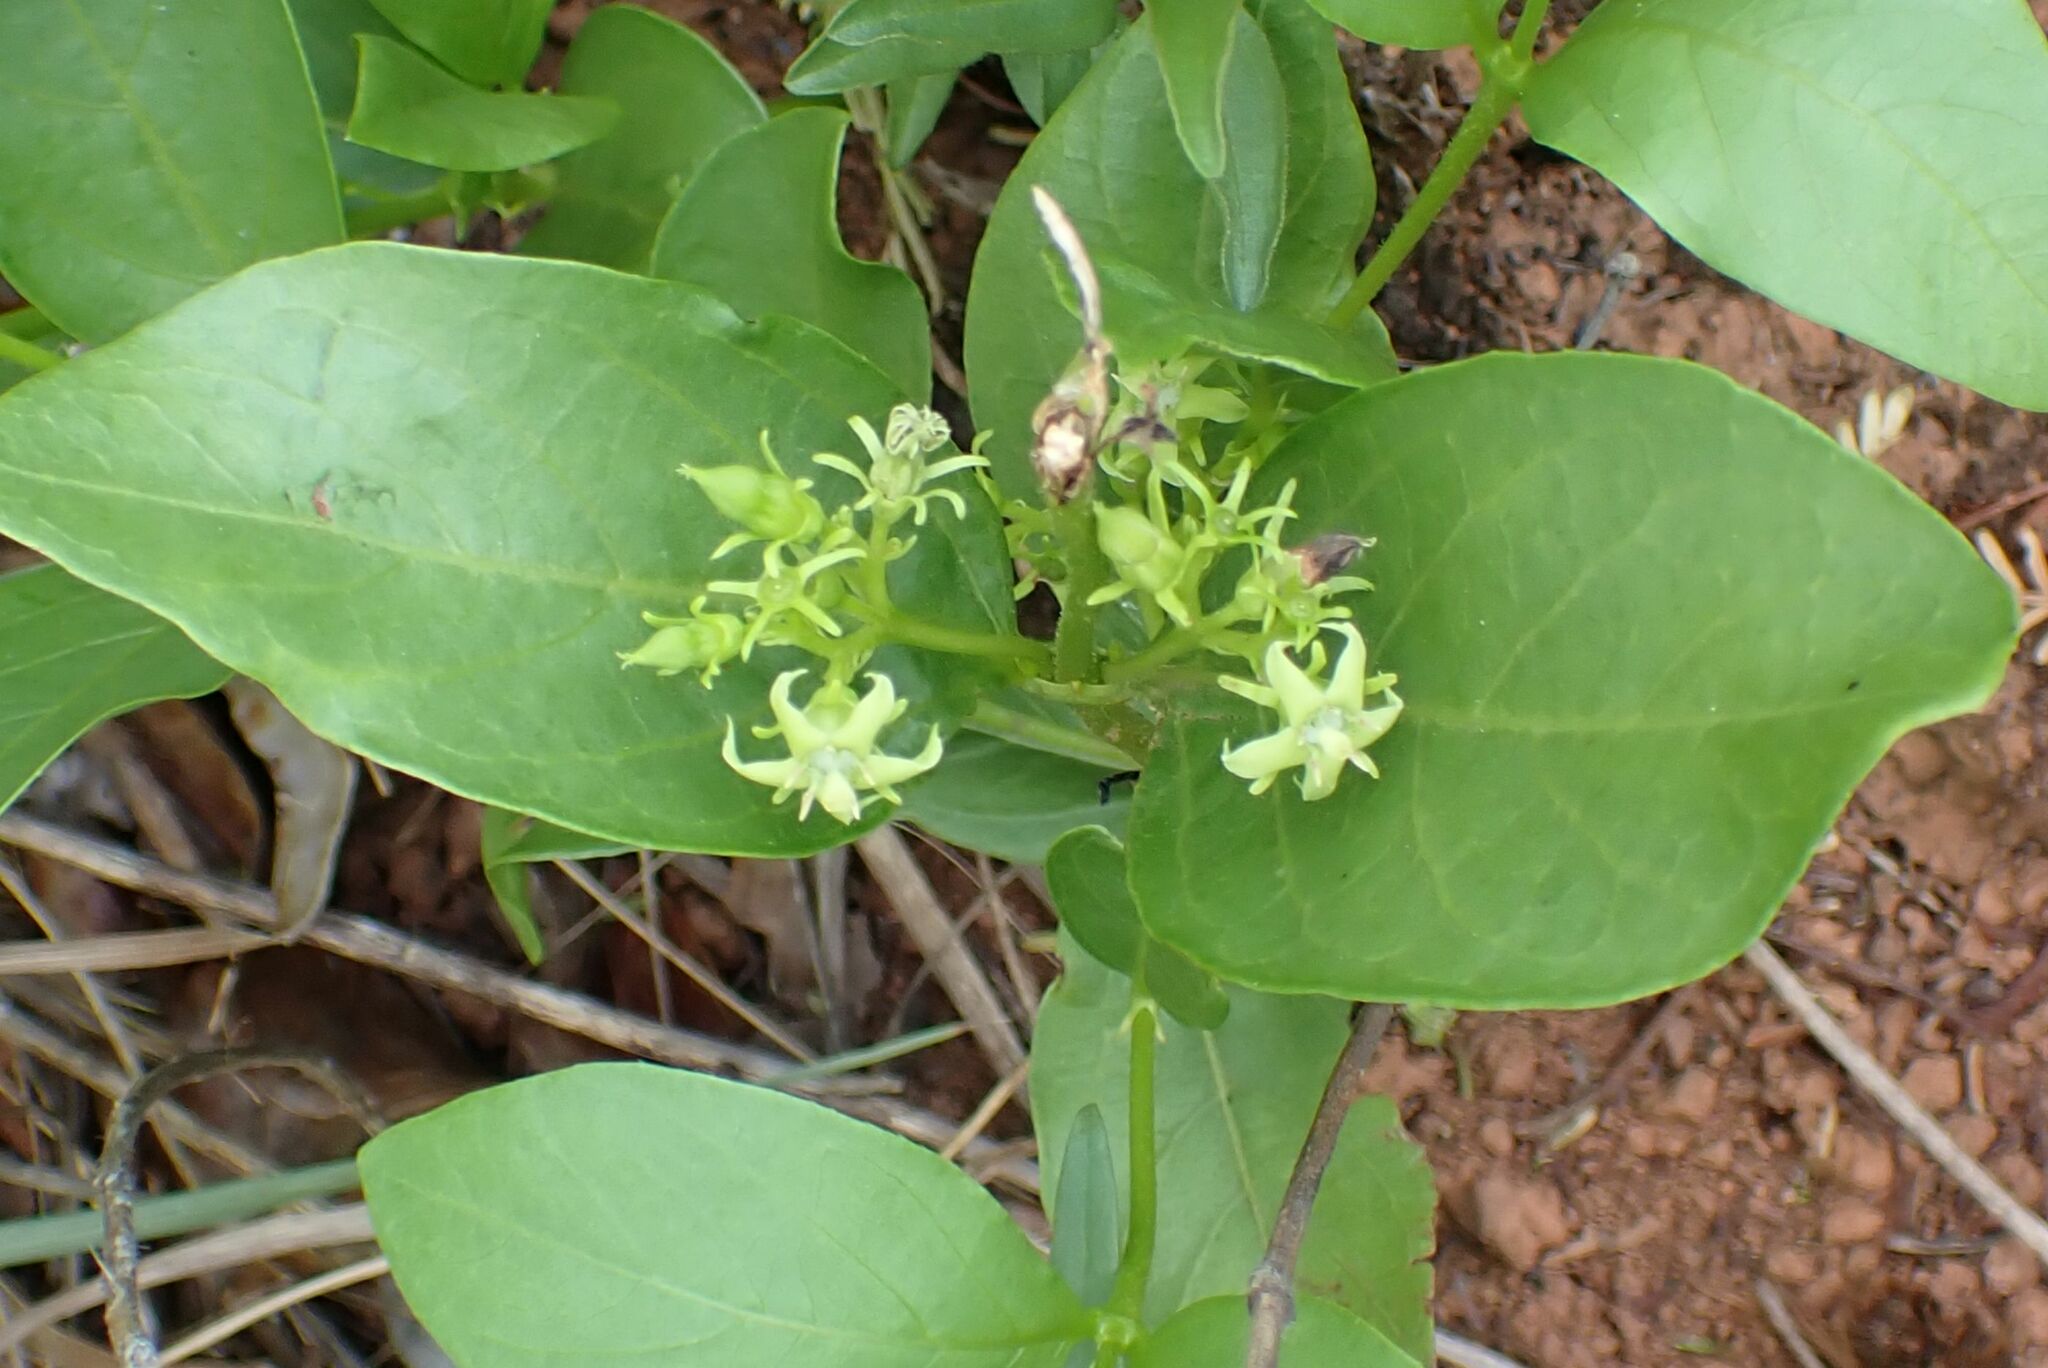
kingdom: Plantae
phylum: Tracheophyta
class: Magnoliopsida
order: Gentianales
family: Rubiaceae
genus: Vangueria
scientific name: Vangueria venosa
